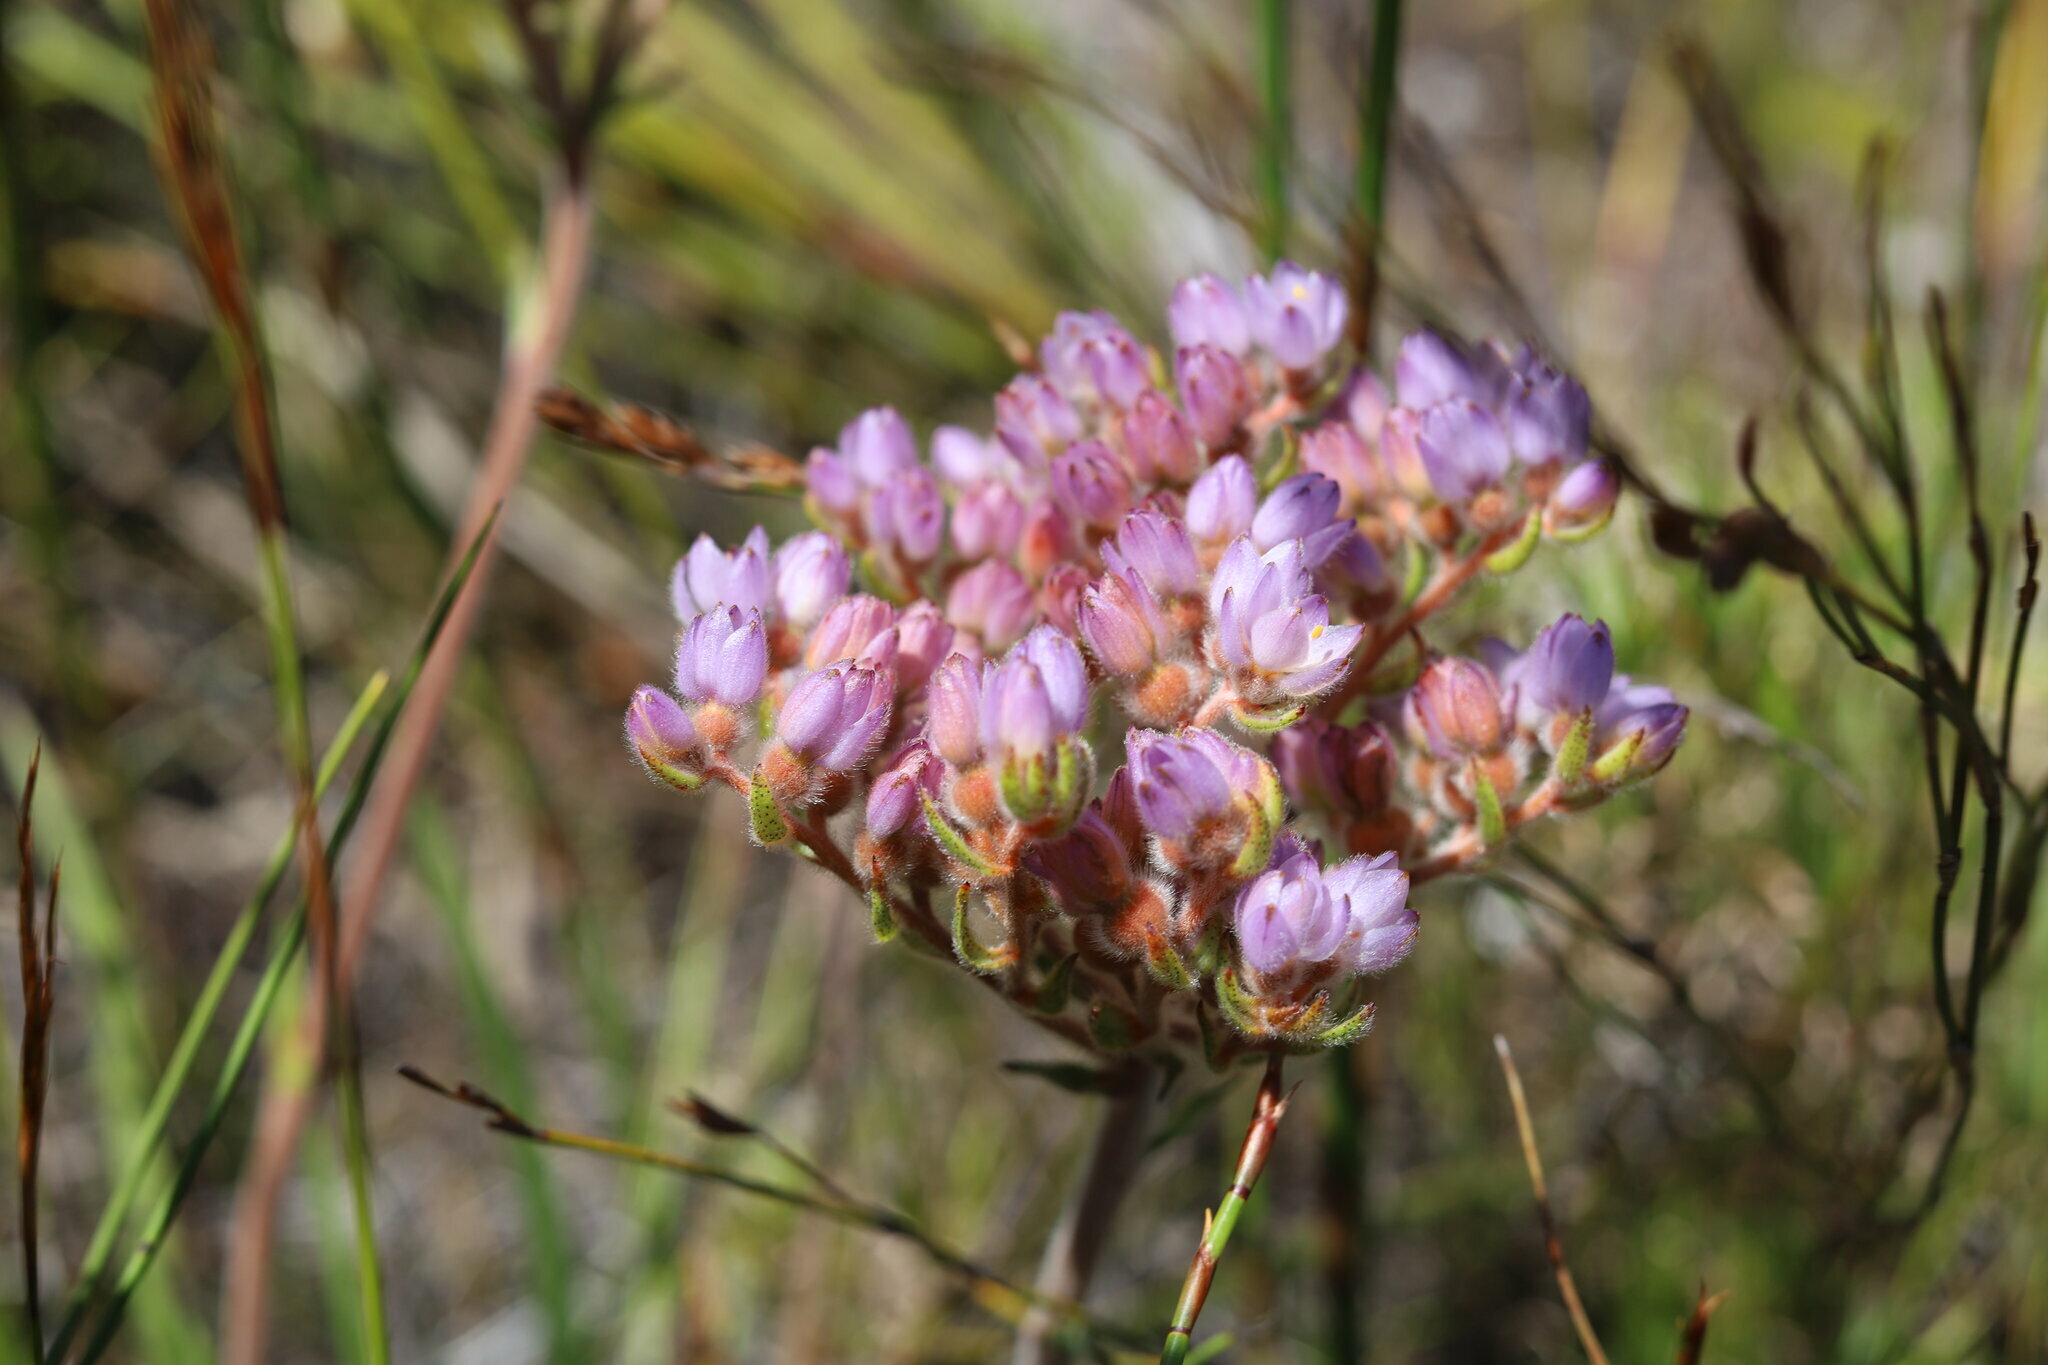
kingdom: Plantae
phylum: Tracheophyta
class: Liliopsida
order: Commelinales
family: Haemodoraceae
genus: Dilatris
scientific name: Dilatris pillansii
